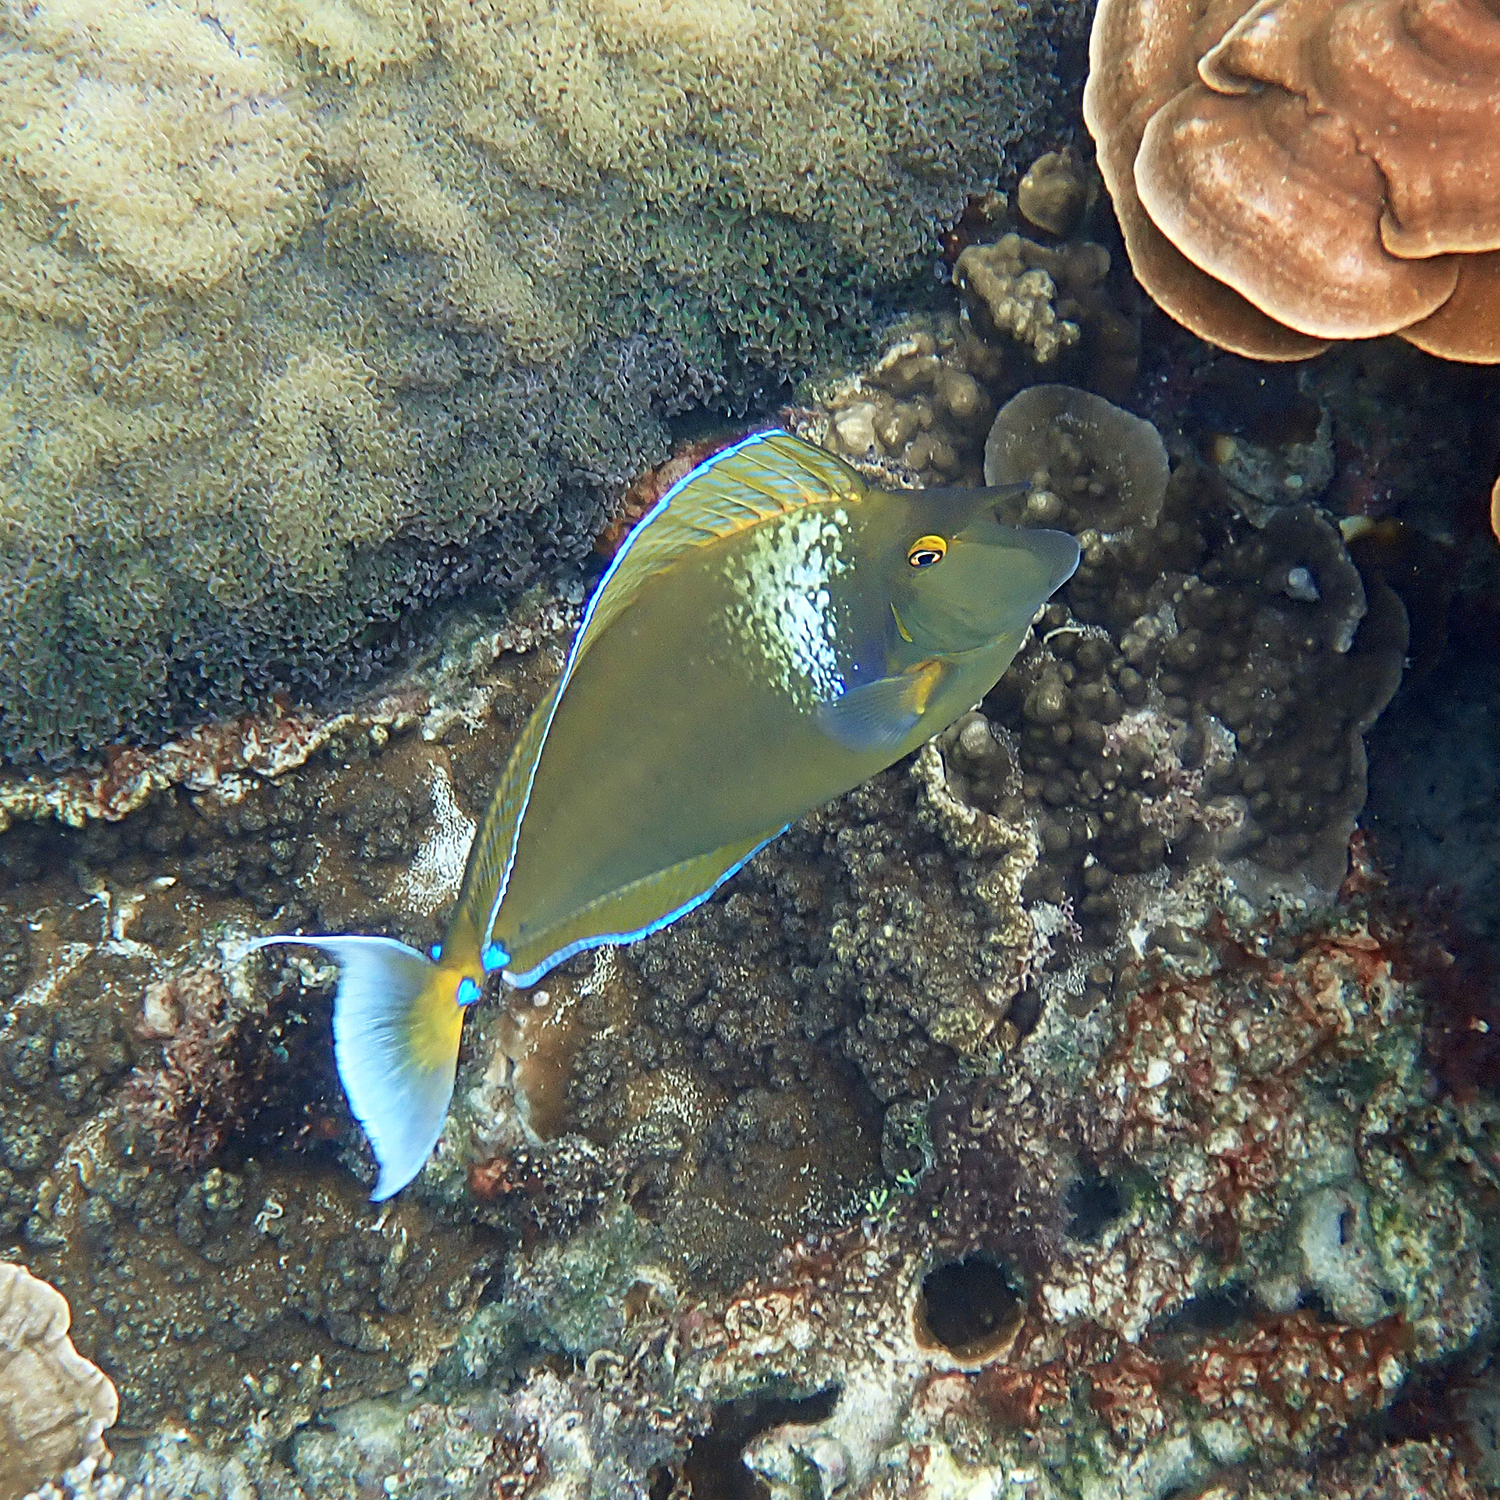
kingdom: Animalia
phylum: Chordata
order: Perciformes
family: Acanthuridae
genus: Naso
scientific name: Naso unicornis
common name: Bluespine unicornfish
